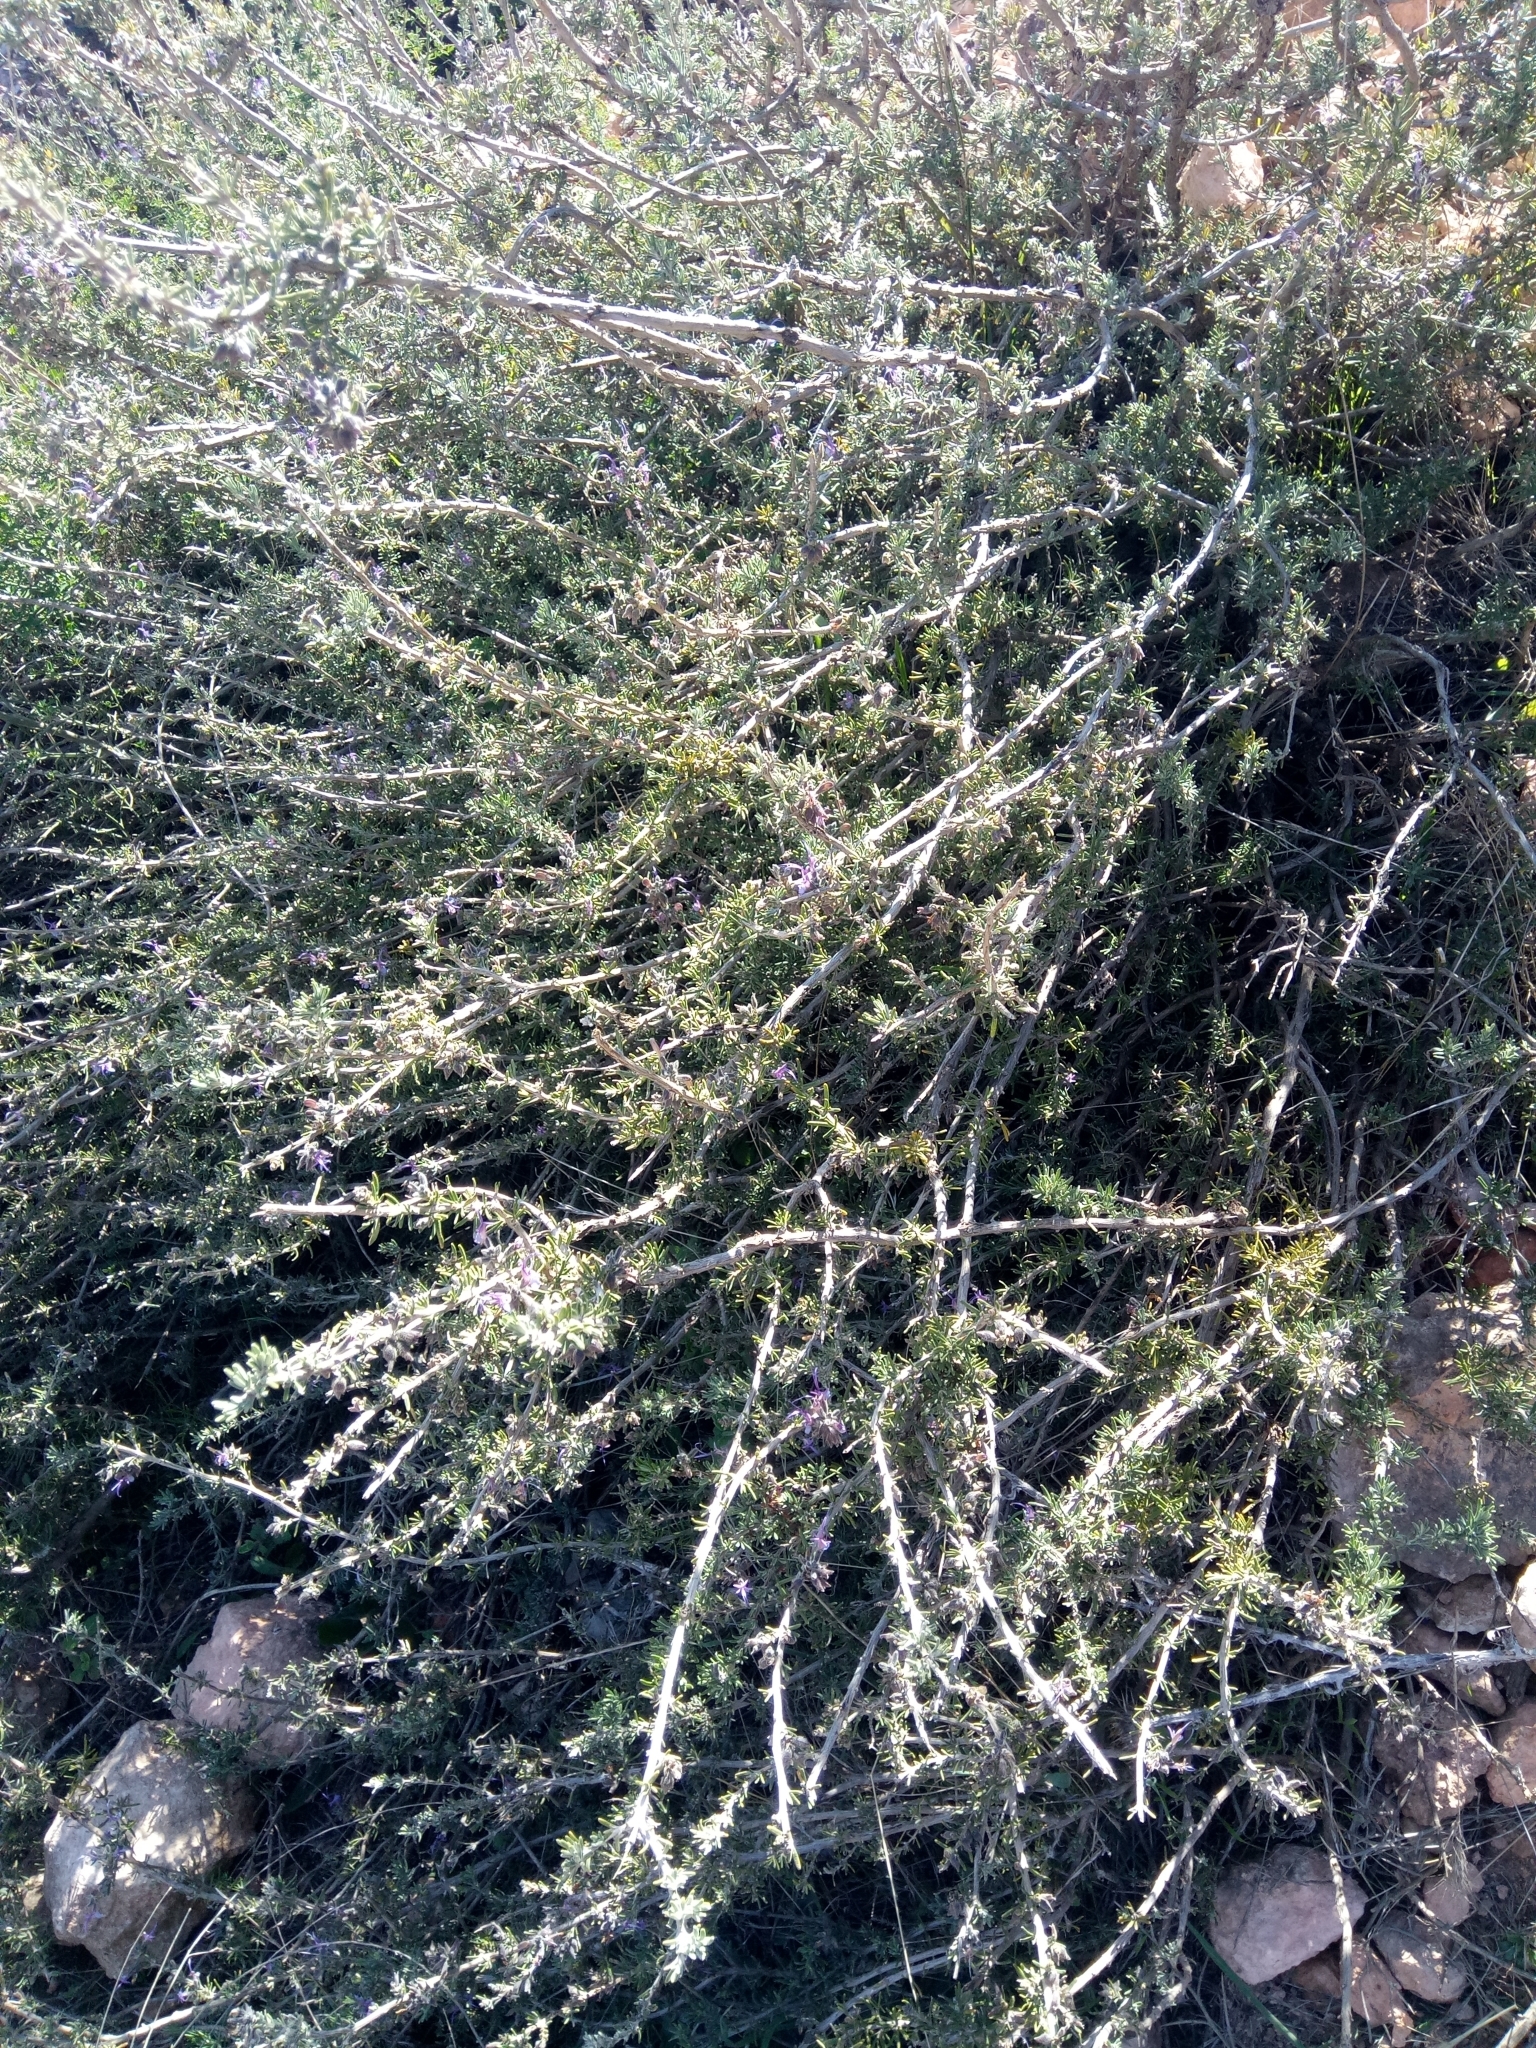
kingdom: Plantae
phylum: Tracheophyta
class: Magnoliopsida
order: Lamiales
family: Lamiaceae
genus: Salvia
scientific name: Salvia jordanii
